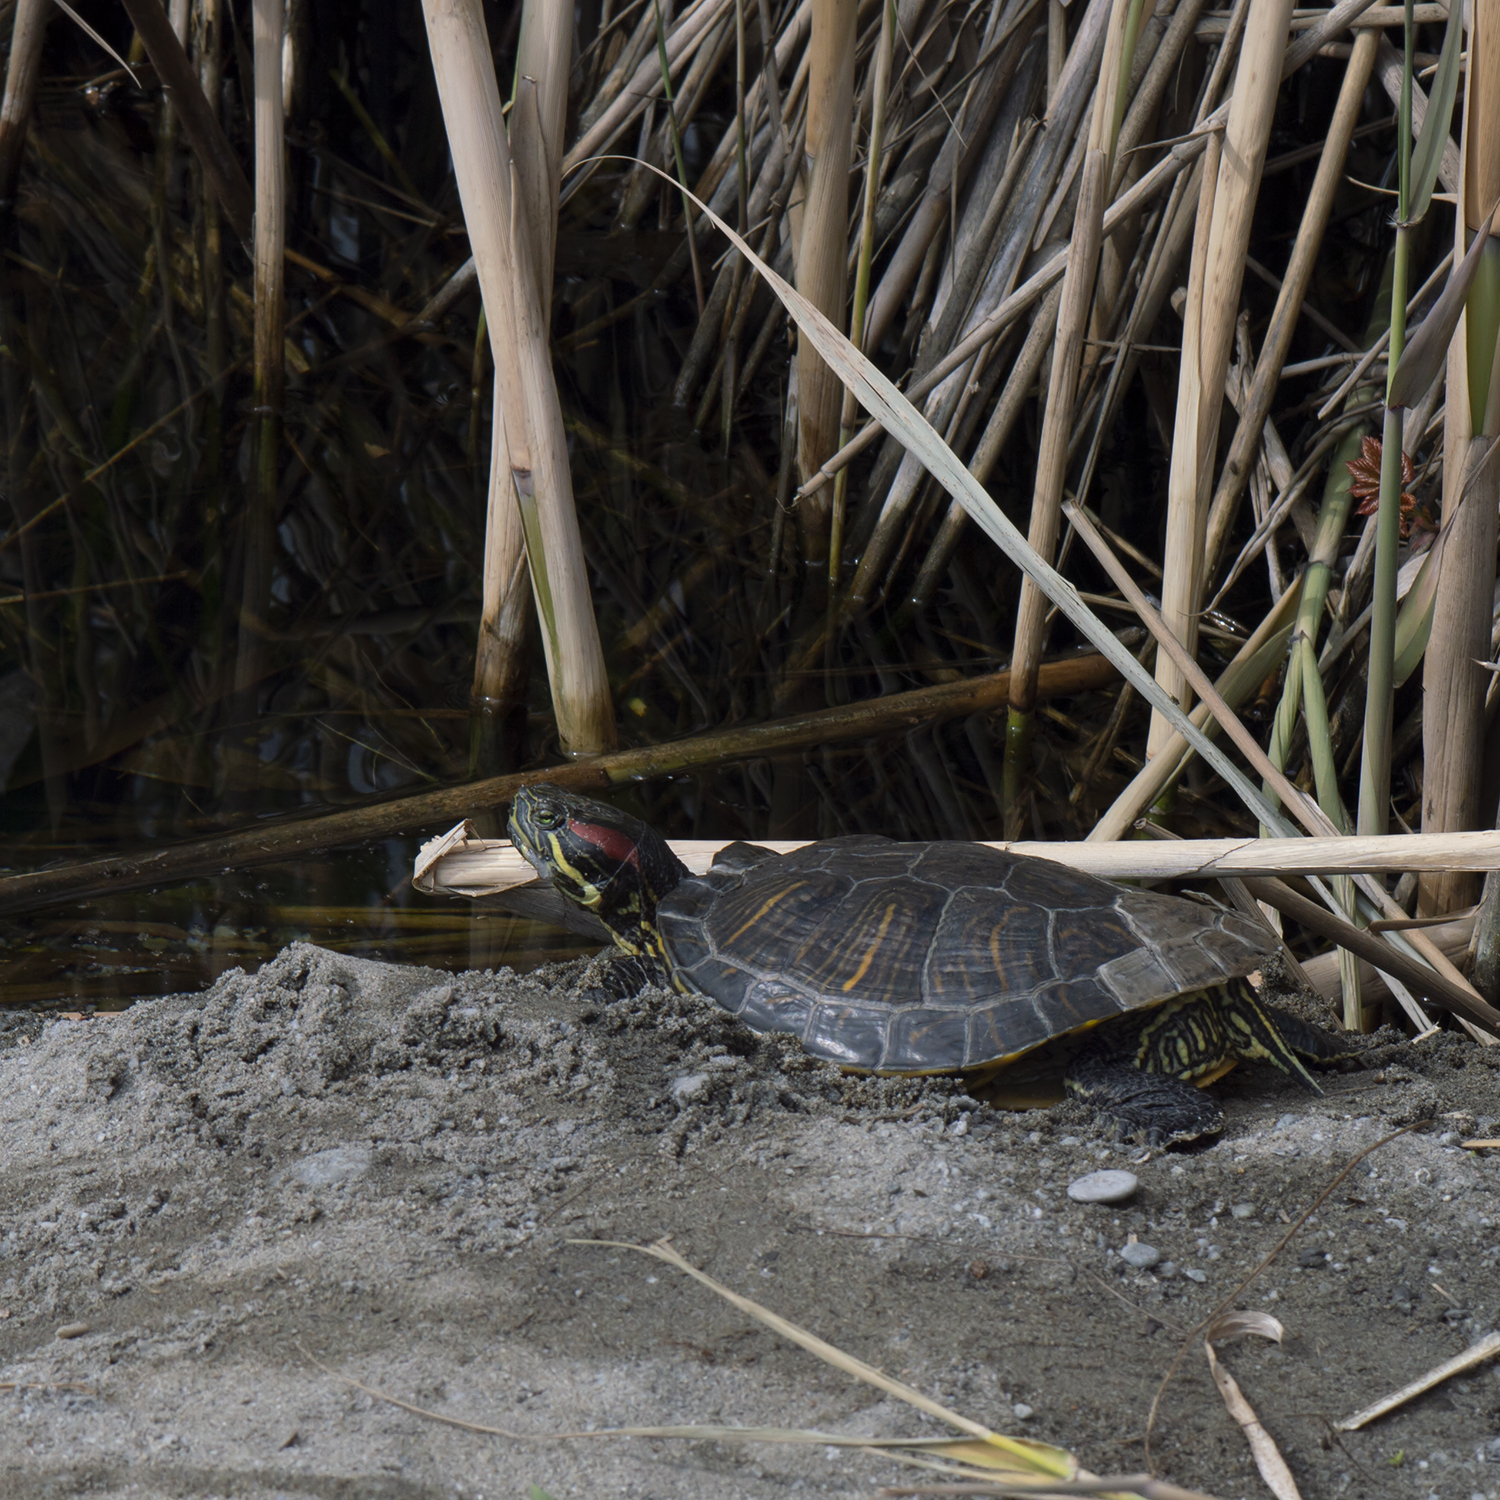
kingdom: Animalia
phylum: Chordata
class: Testudines
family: Emydidae
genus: Trachemys
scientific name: Trachemys scripta
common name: Slider
